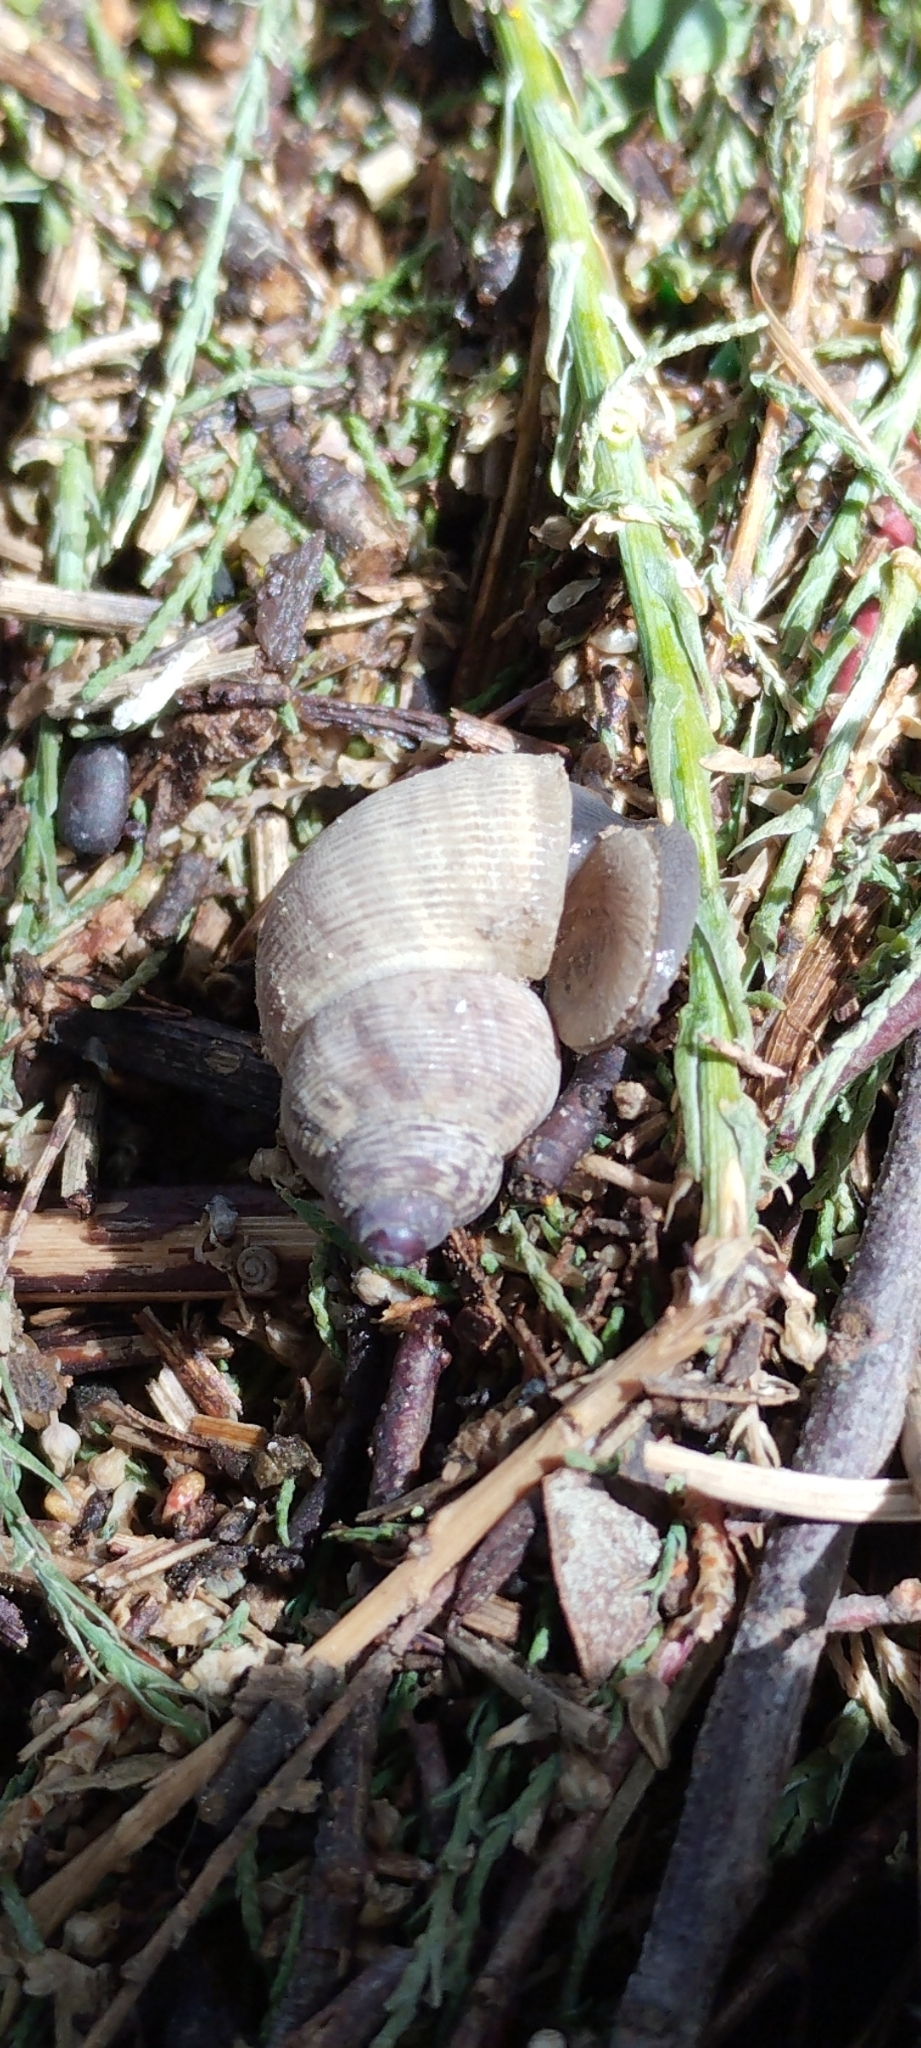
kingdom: Animalia
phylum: Mollusca
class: Gastropoda
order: Littorinimorpha
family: Pomatiidae
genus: Pomatias
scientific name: Pomatias elegans
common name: Red-mouthed snail
